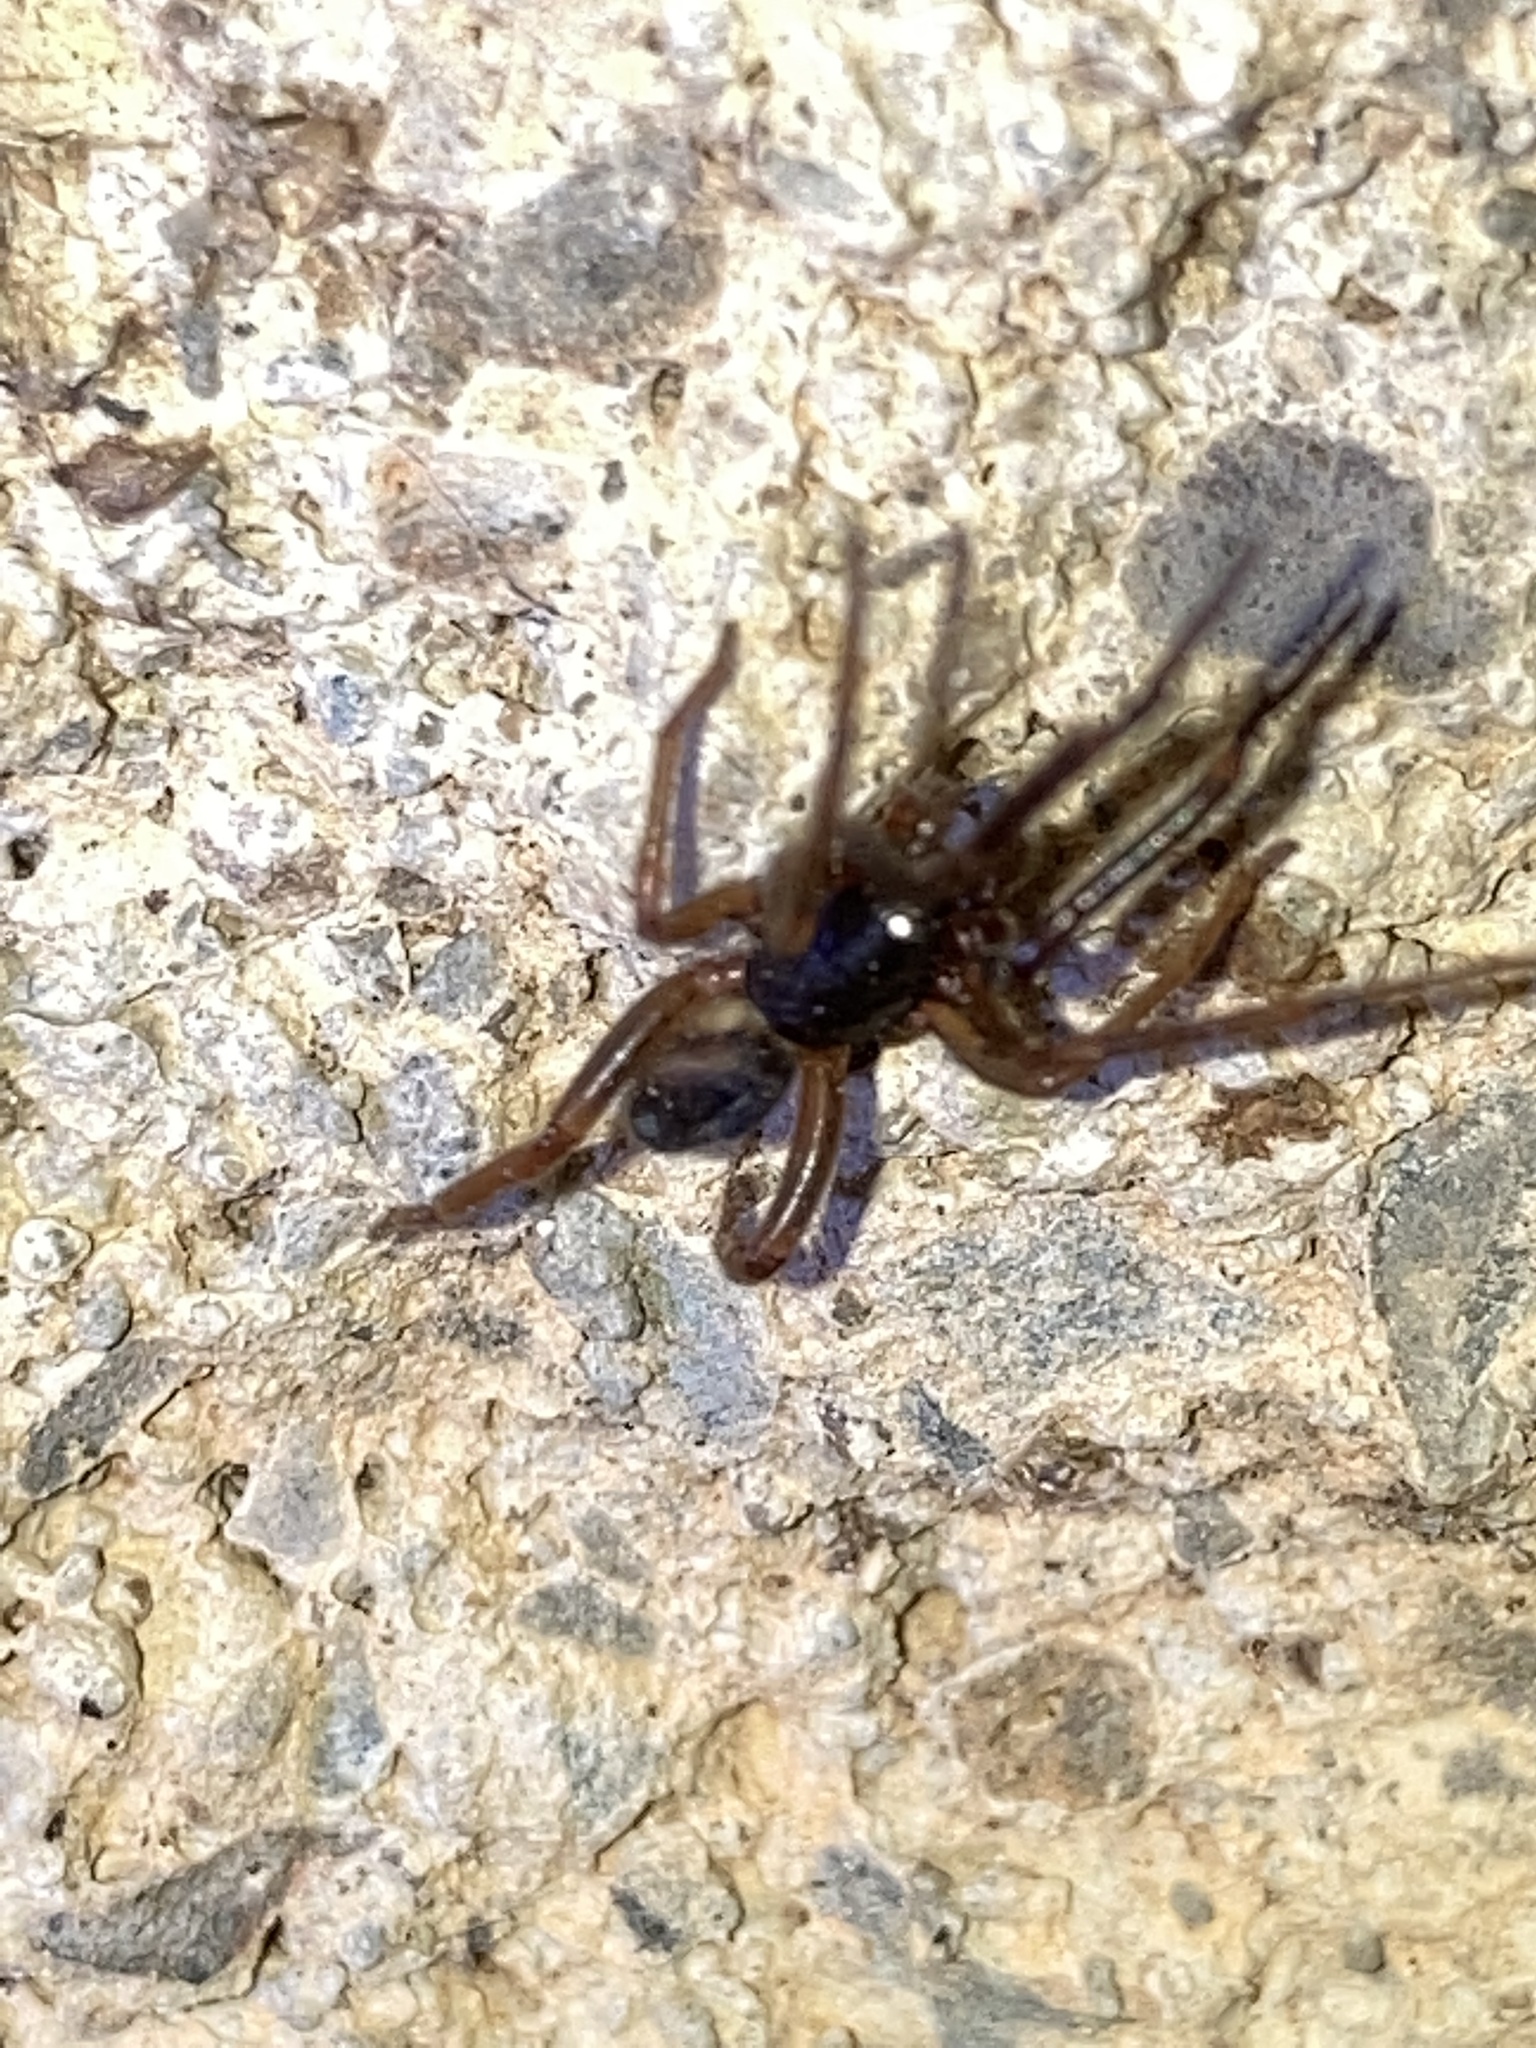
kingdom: Animalia
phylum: Arthropoda
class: Arachnida
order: Araneae
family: Segestriidae
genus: Ariadna
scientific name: Ariadna bicolor
